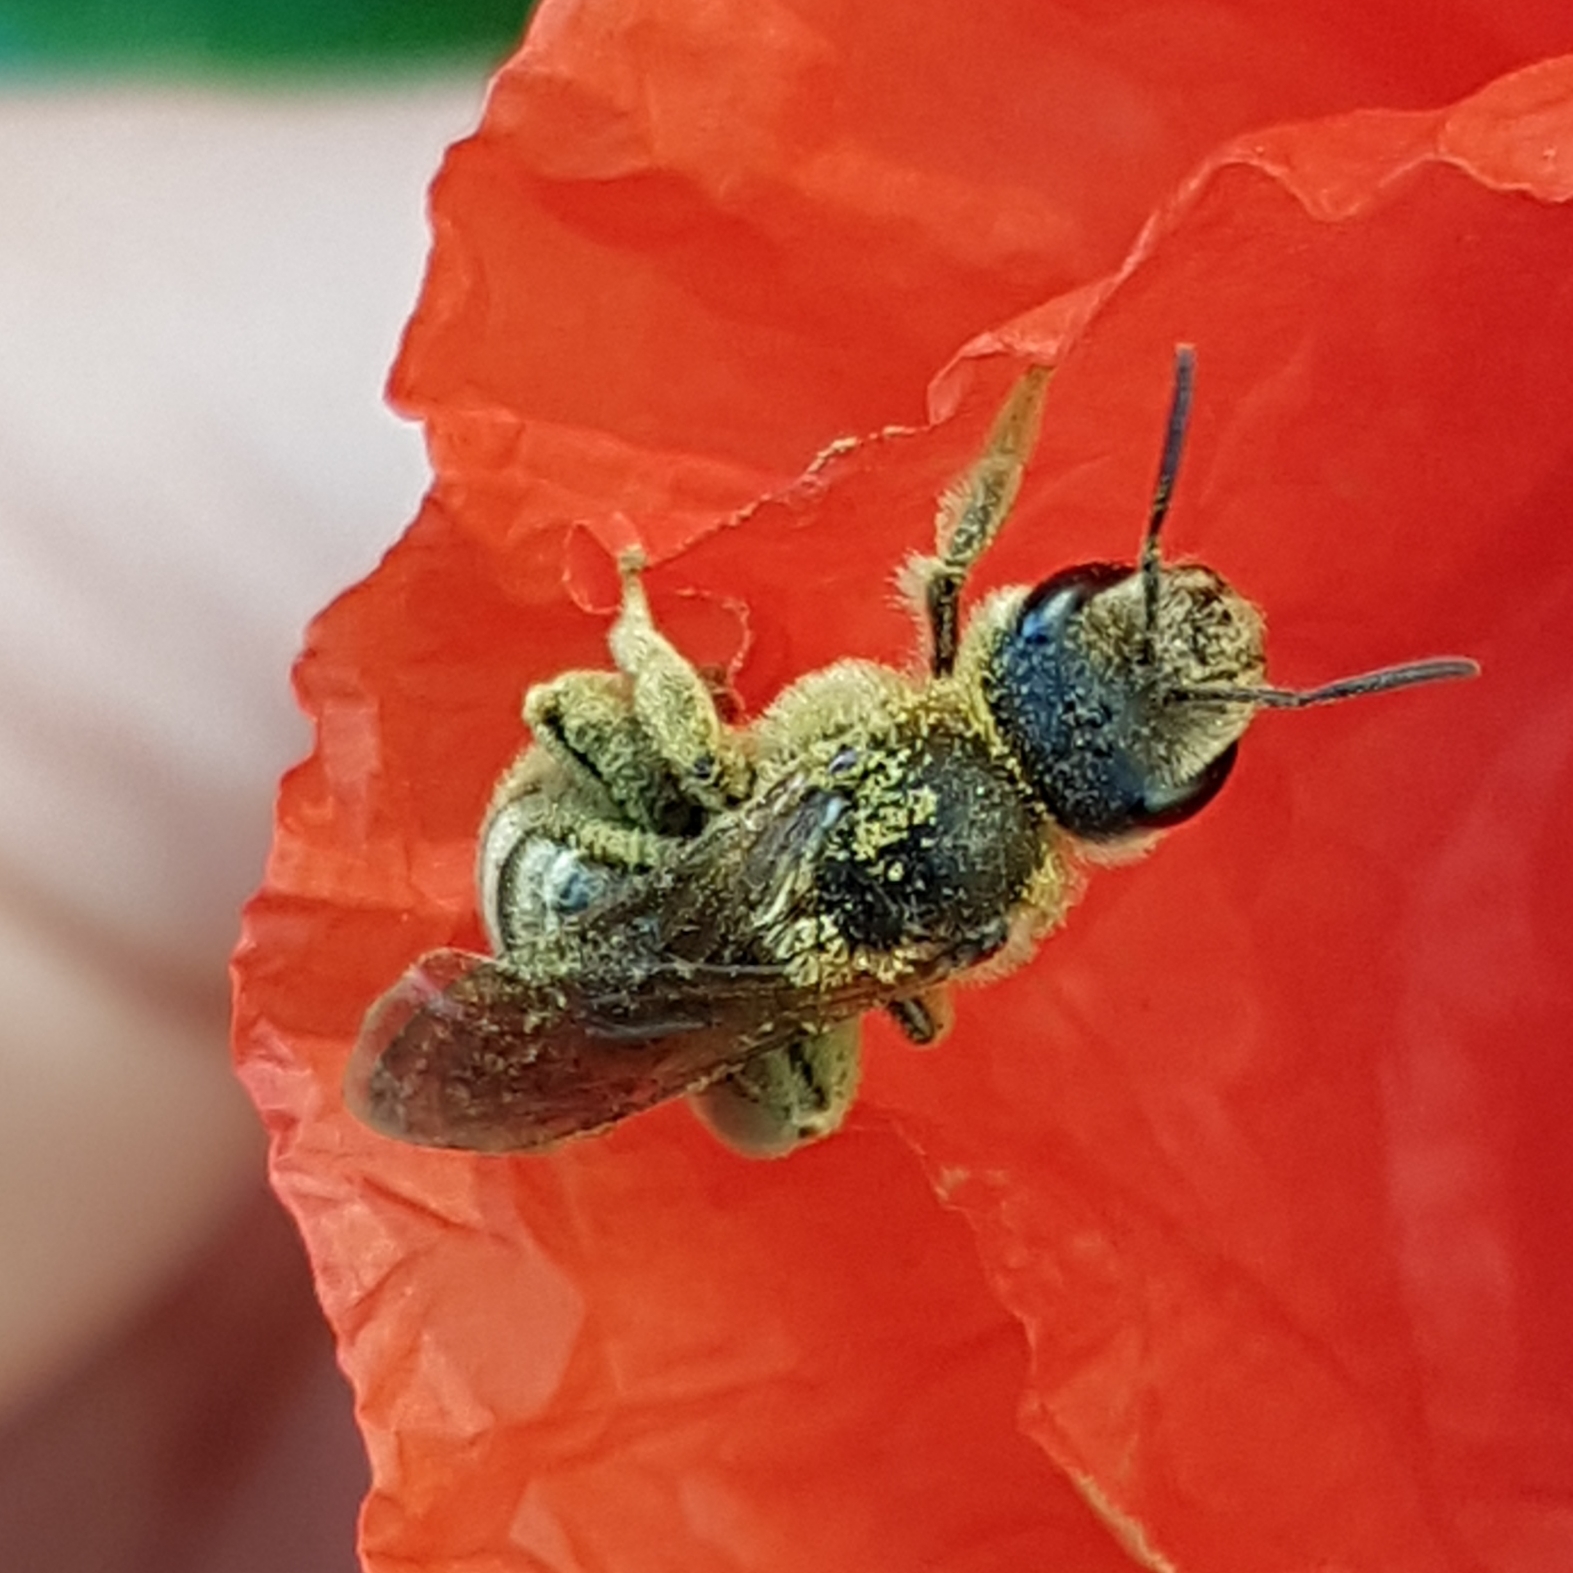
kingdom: Animalia
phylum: Arthropoda
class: Insecta
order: Hymenoptera
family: Halictidae
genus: Halictus
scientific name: Halictus scabiosae
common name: Great banded furrow bee
